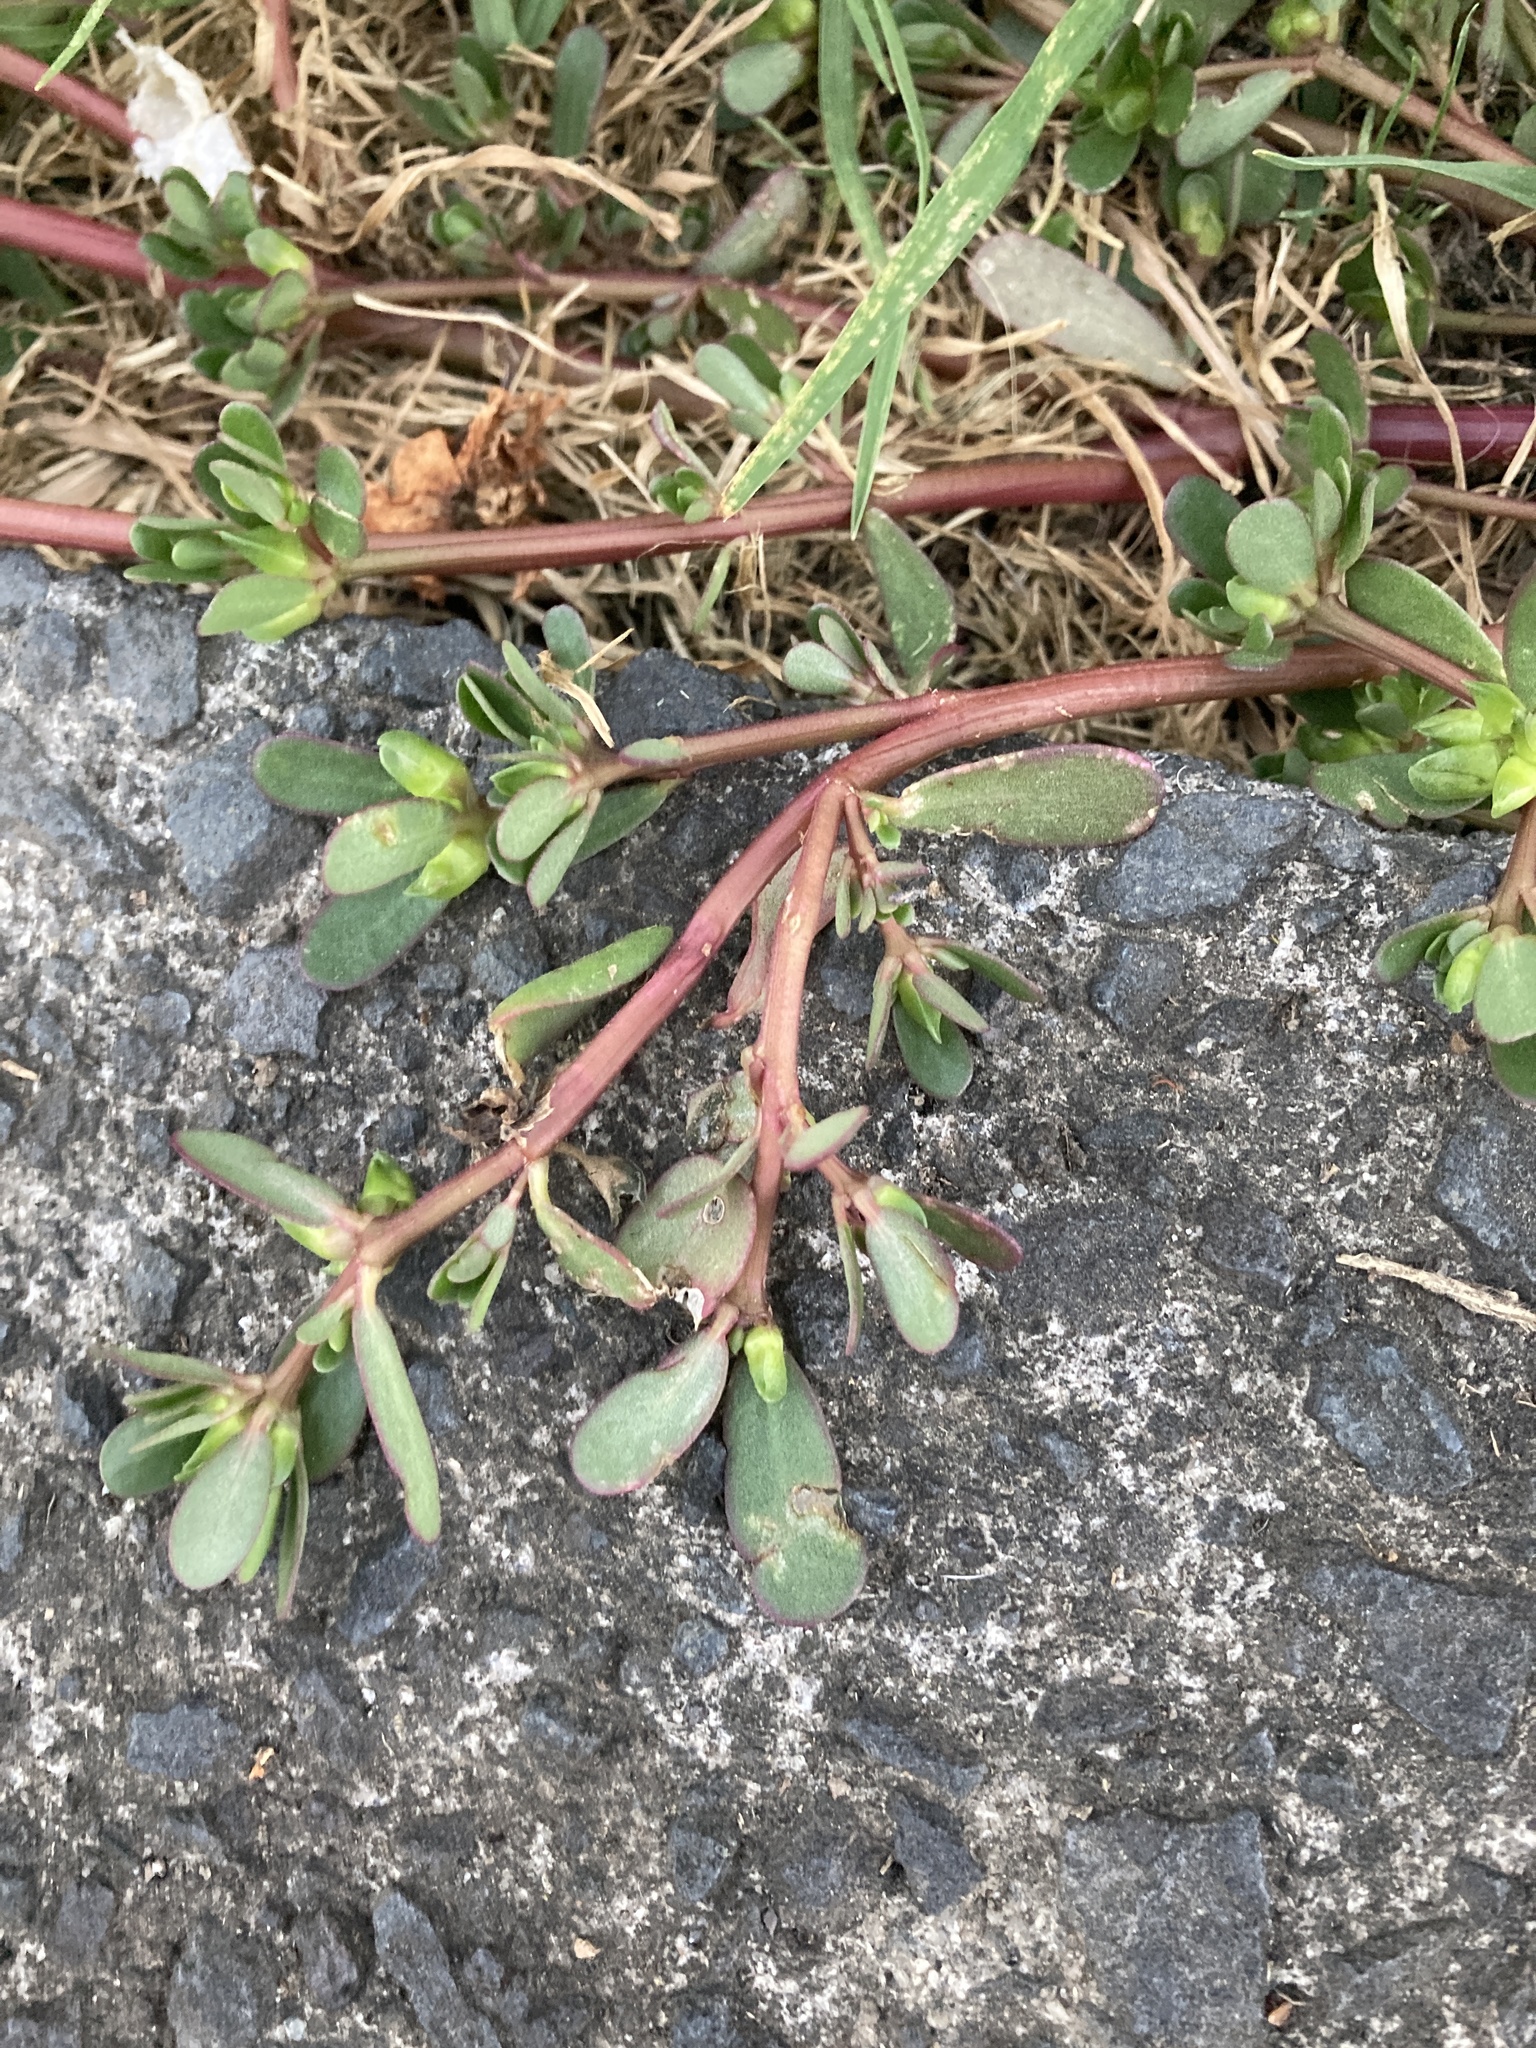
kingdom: Plantae
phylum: Tracheophyta
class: Magnoliopsida
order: Caryophyllales
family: Portulacaceae
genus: Portulaca
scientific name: Portulaca oleracea
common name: Common purslane
